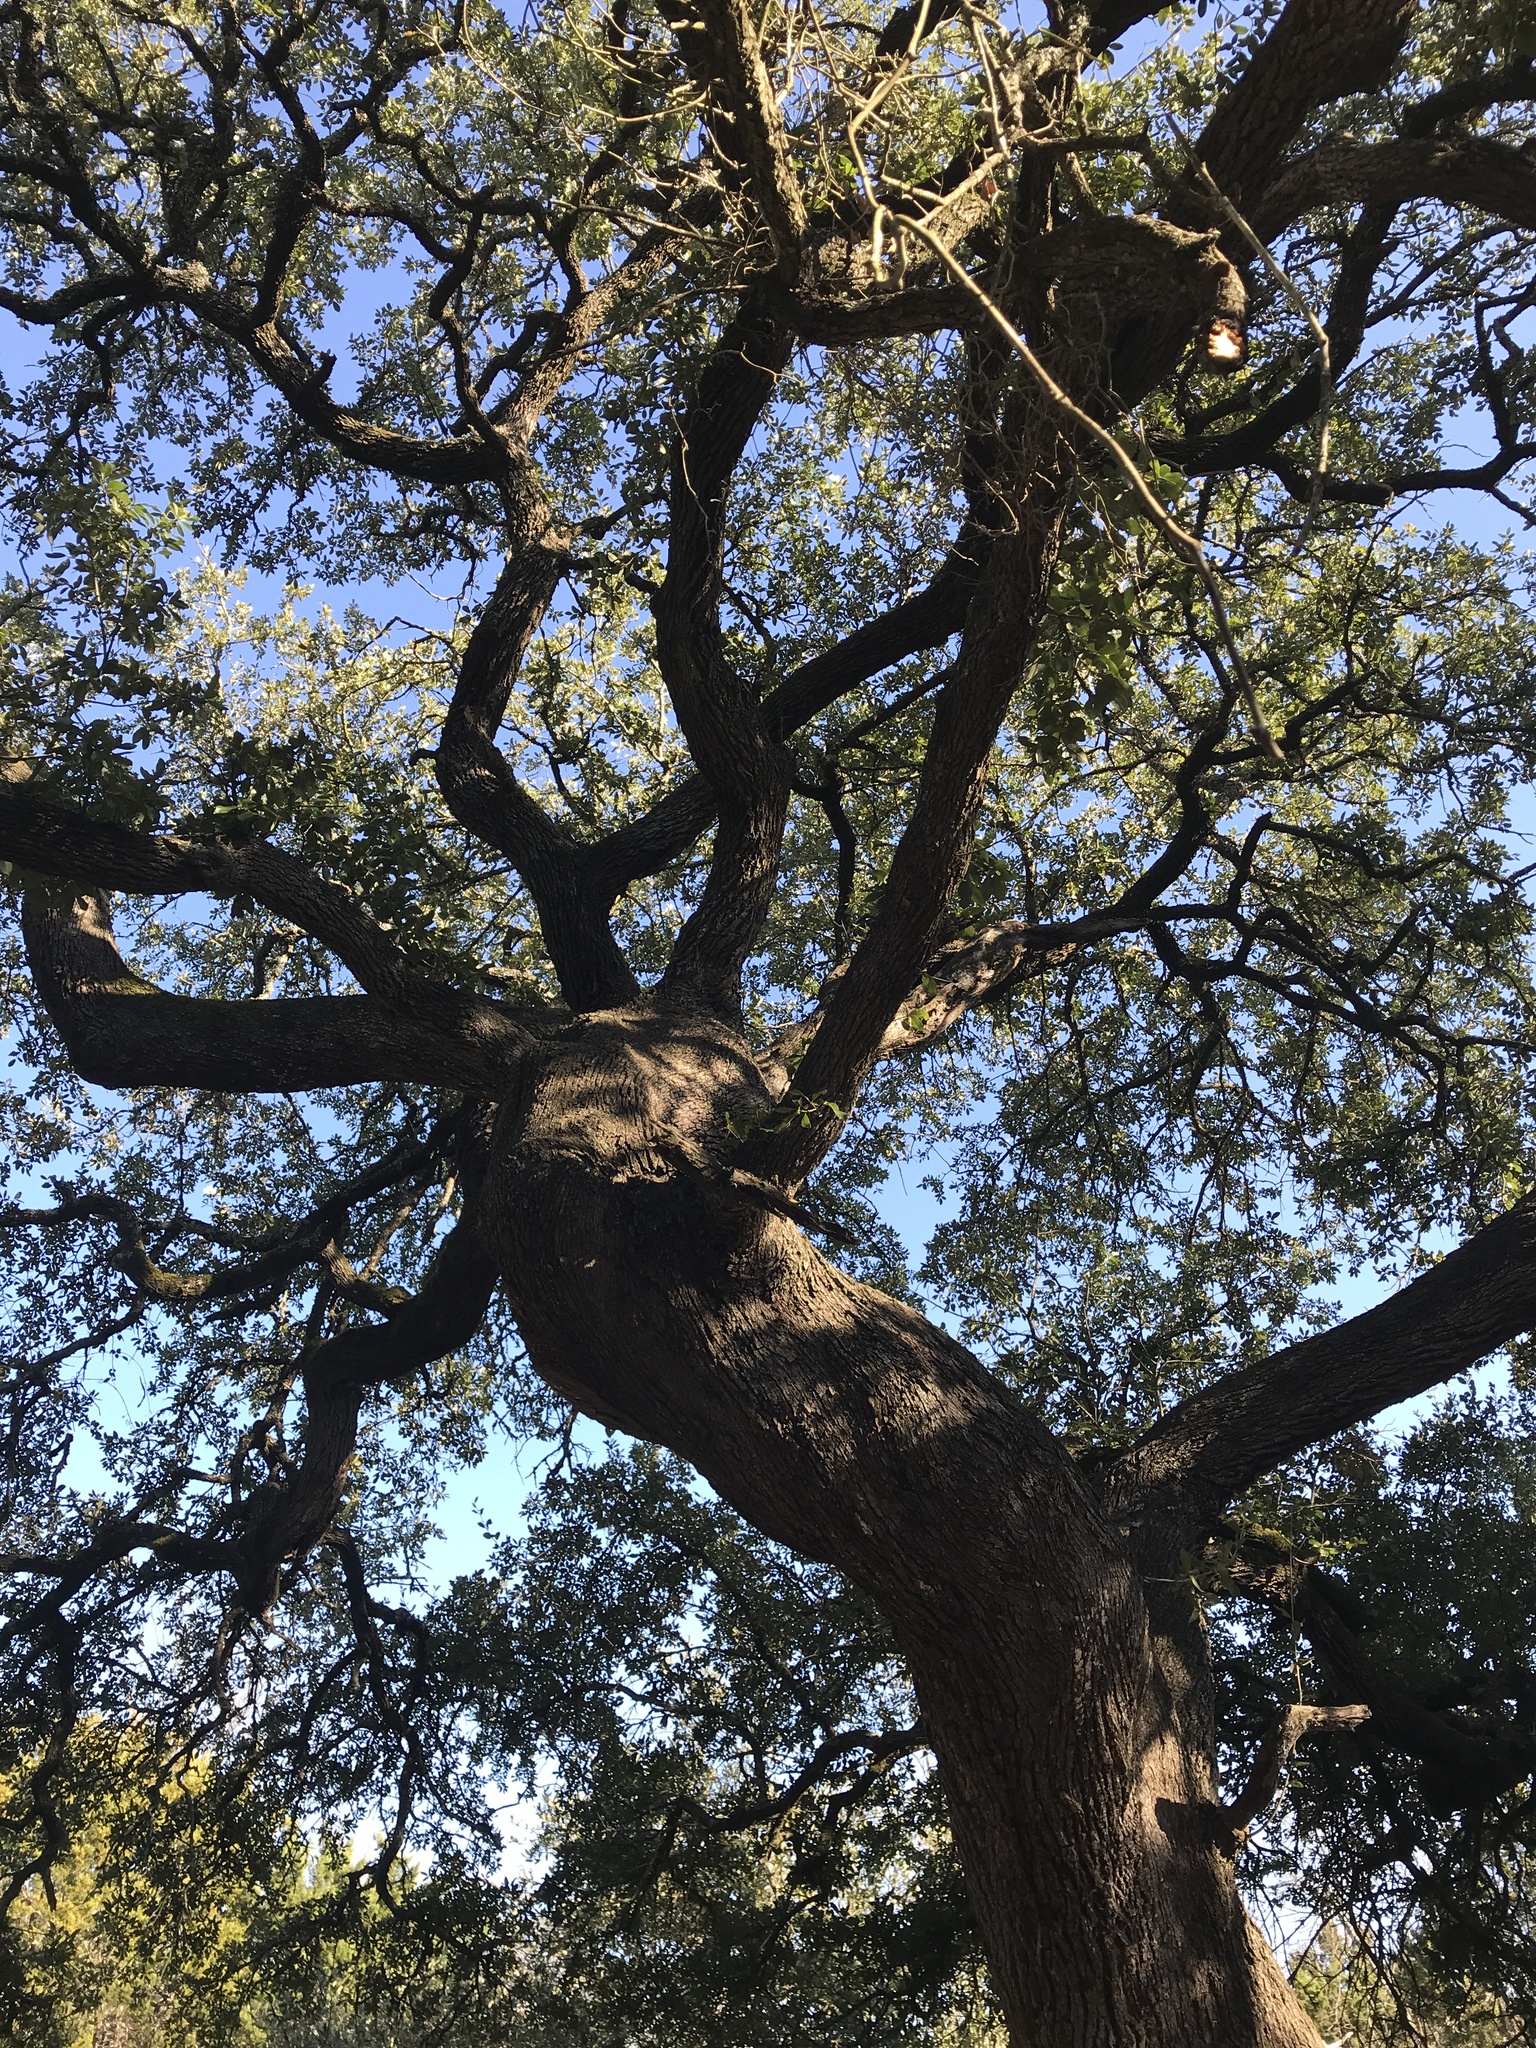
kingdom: Plantae
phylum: Tracheophyta
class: Magnoliopsida
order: Fagales
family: Fagaceae
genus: Quercus
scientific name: Quercus fusiformis
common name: Texas live oak
